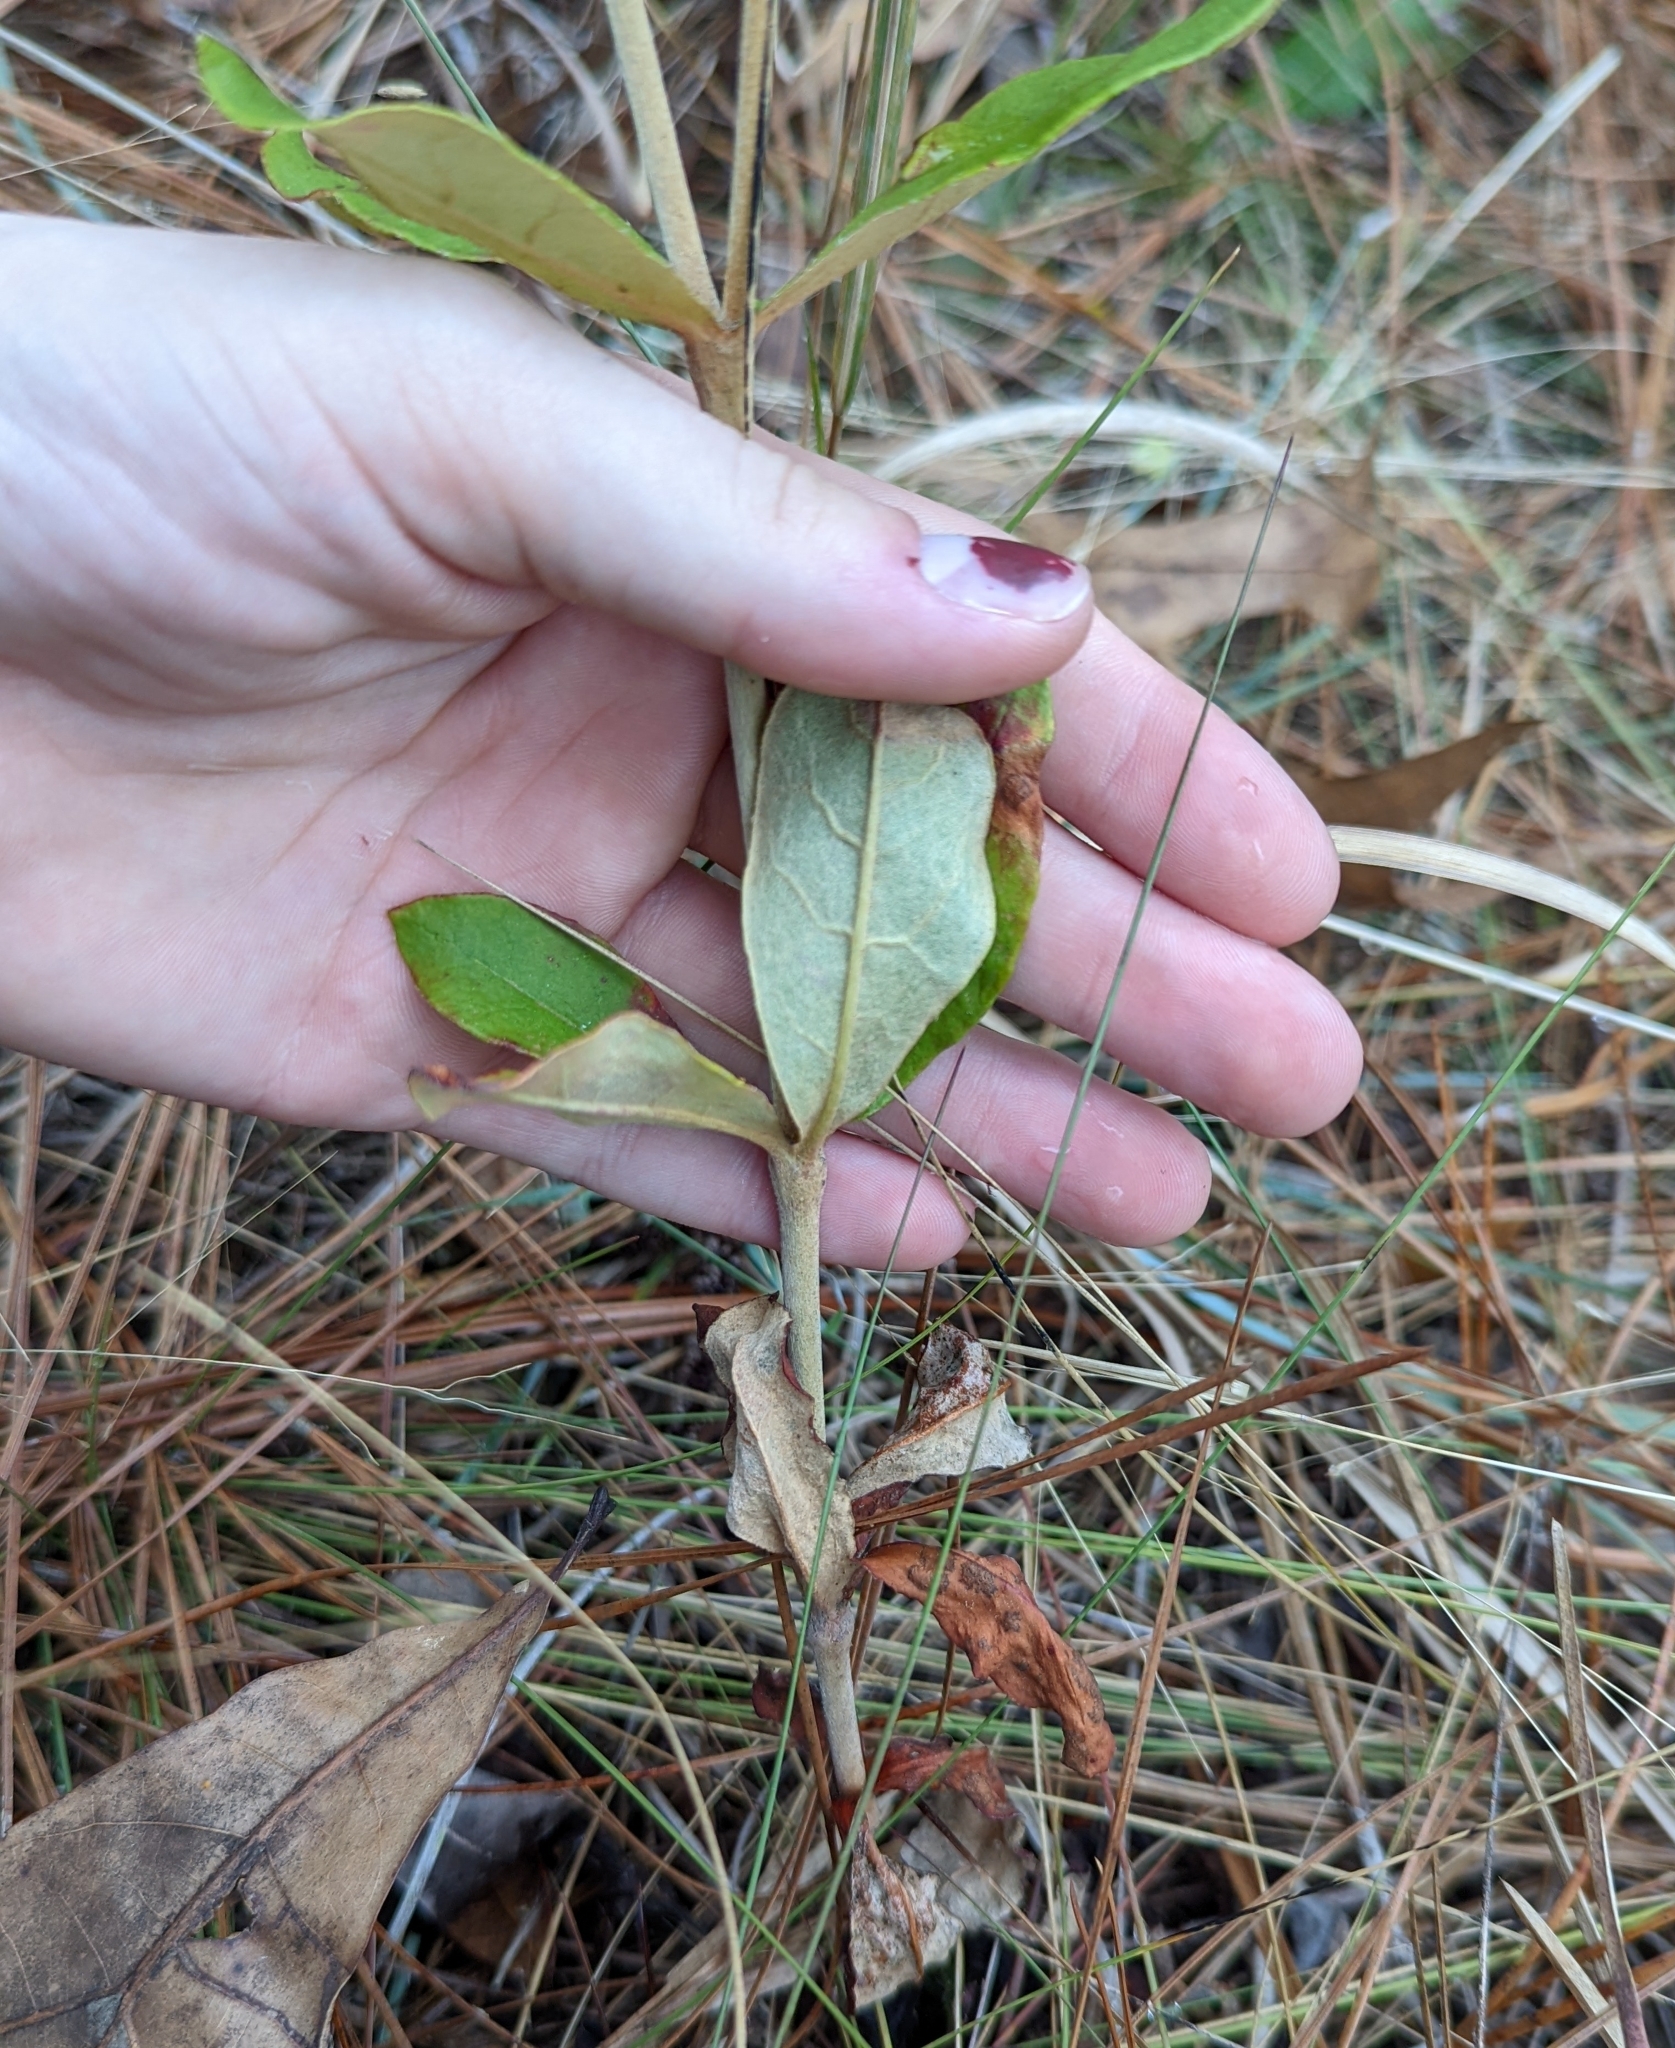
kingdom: Plantae
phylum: Tracheophyta
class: Magnoliopsida
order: Caryophyllales
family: Polygonaceae
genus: Eriogonum
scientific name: Eriogonum tomentosum
